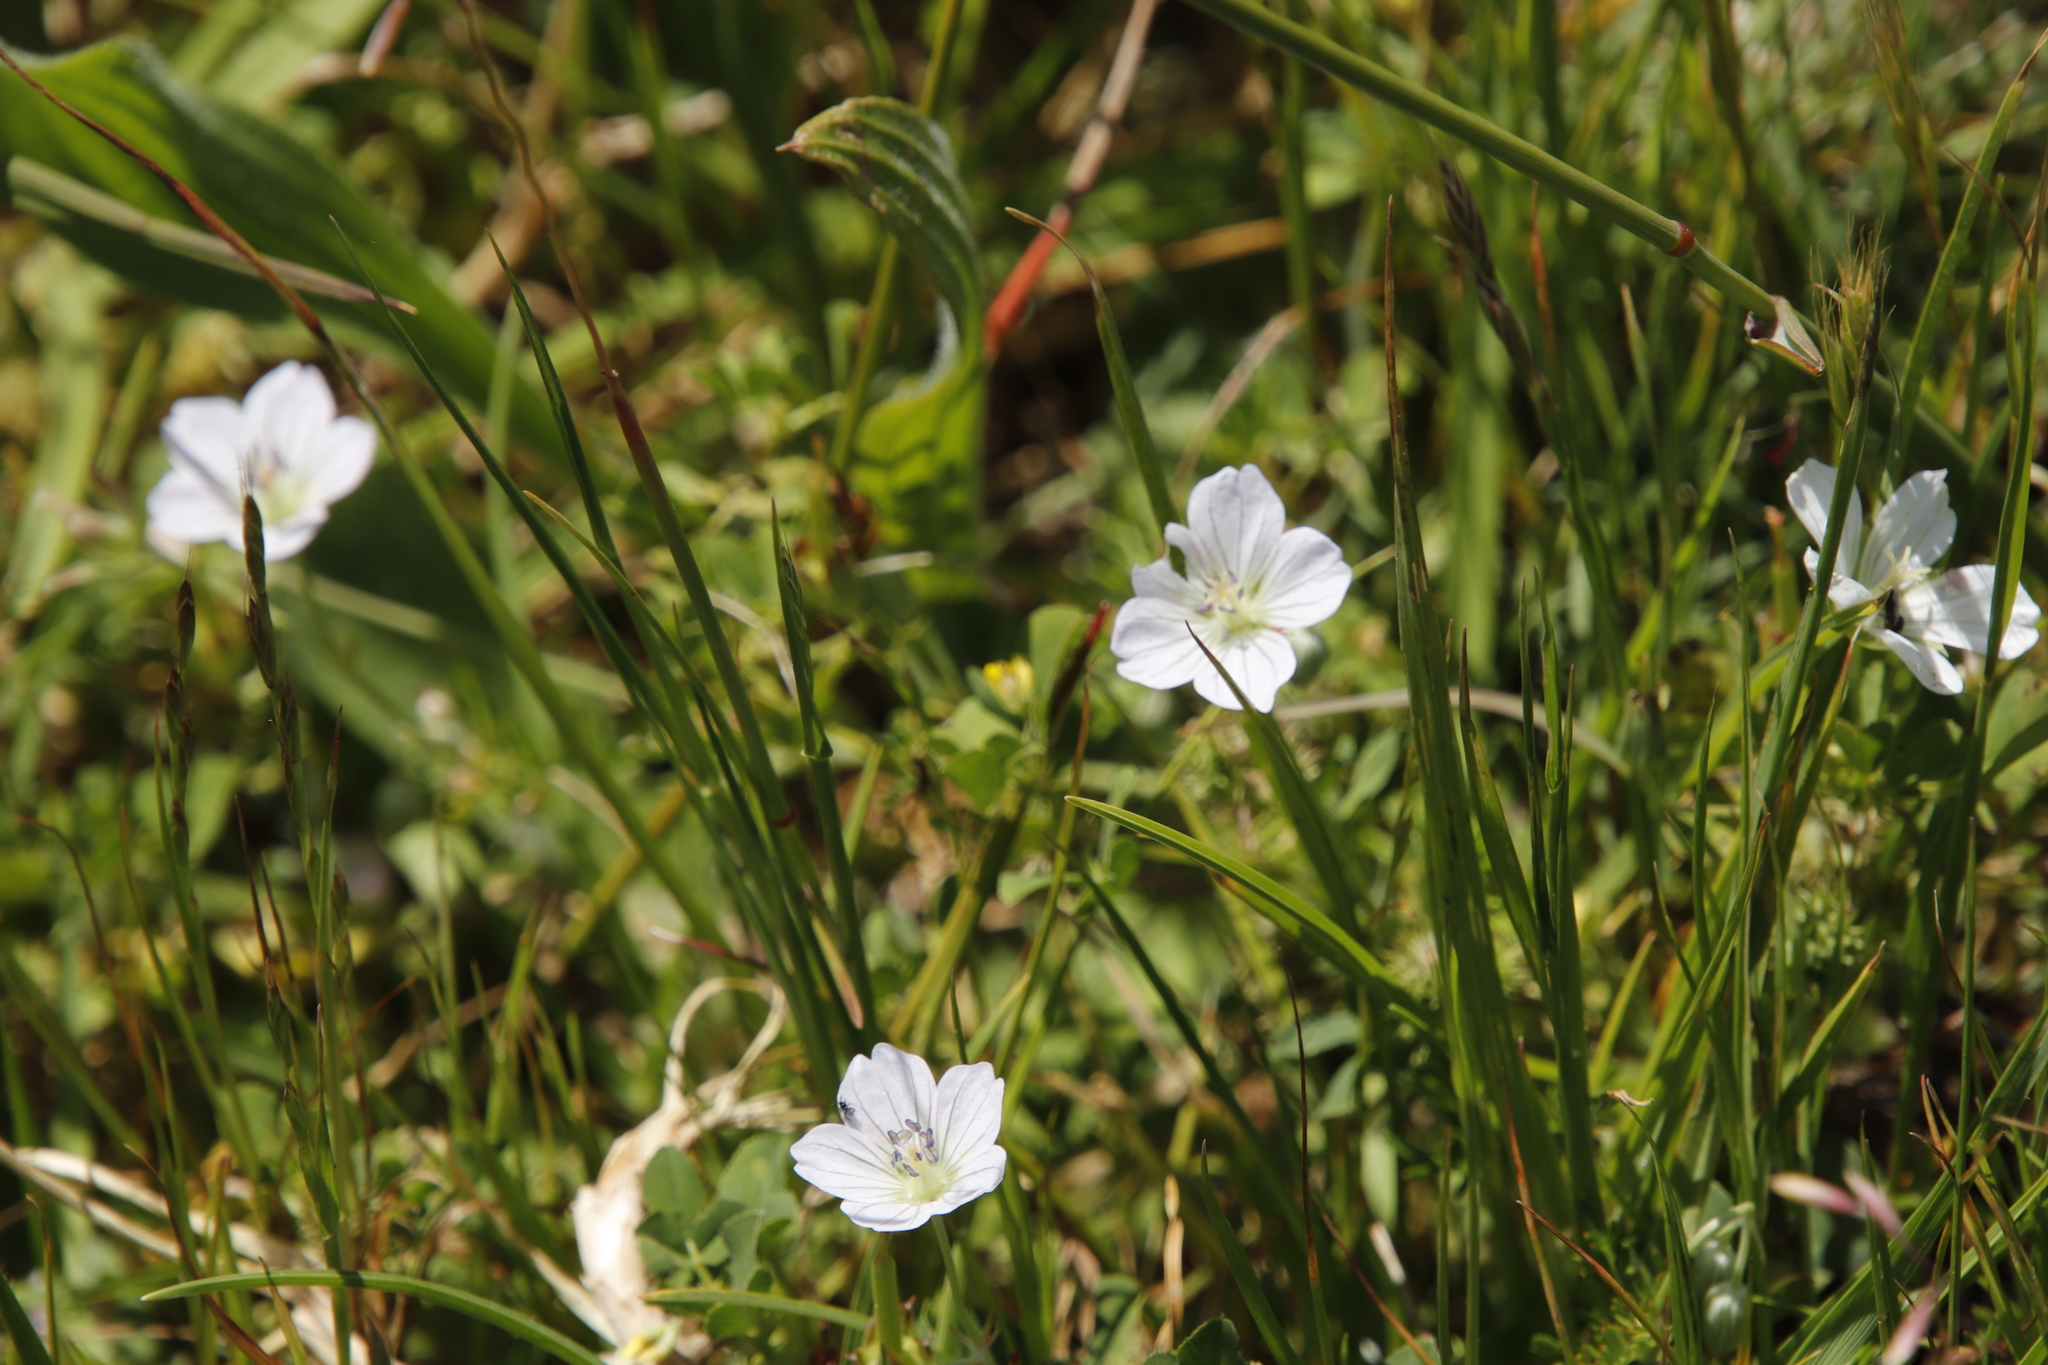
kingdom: Plantae
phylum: Tracheophyta
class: Magnoliopsida
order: Geraniales
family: Geraniaceae
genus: Geranium
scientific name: Geranium incanum
